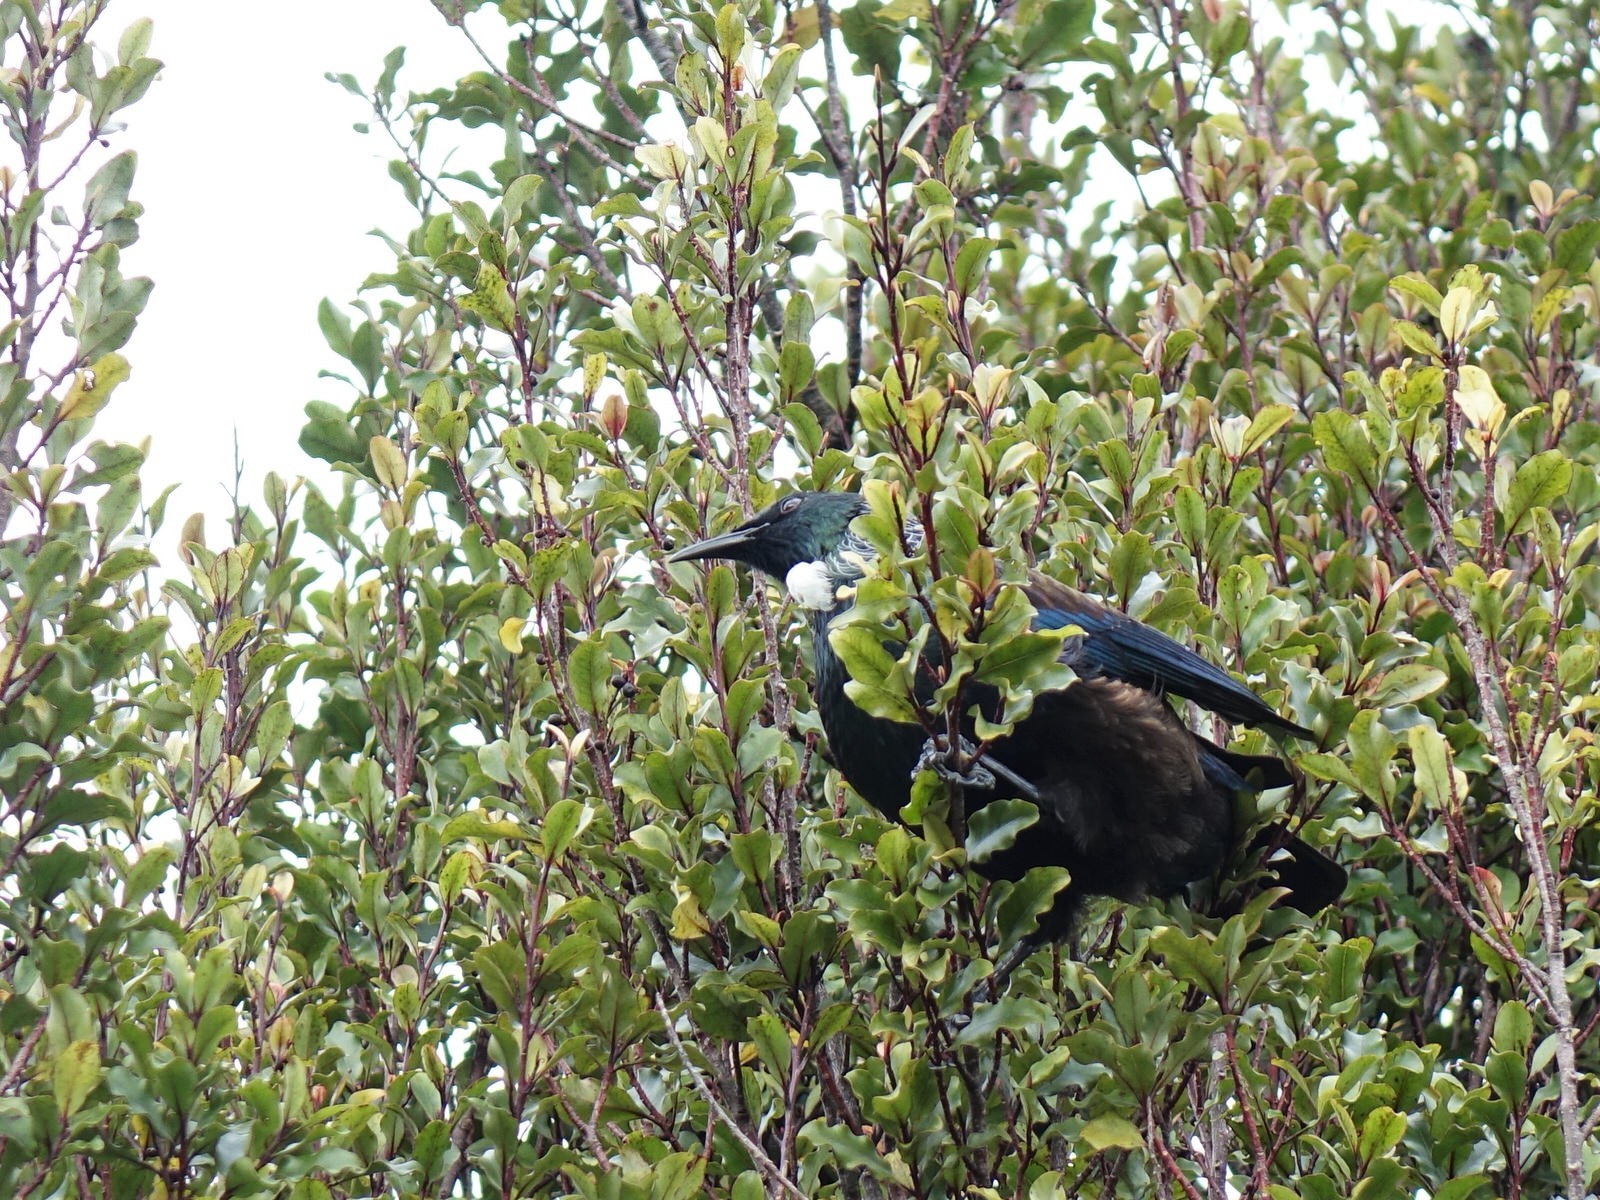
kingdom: Animalia
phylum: Chordata
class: Aves
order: Passeriformes
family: Meliphagidae
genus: Prosthemadera
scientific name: Prosthemadera novaeseelandiae
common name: Tui
